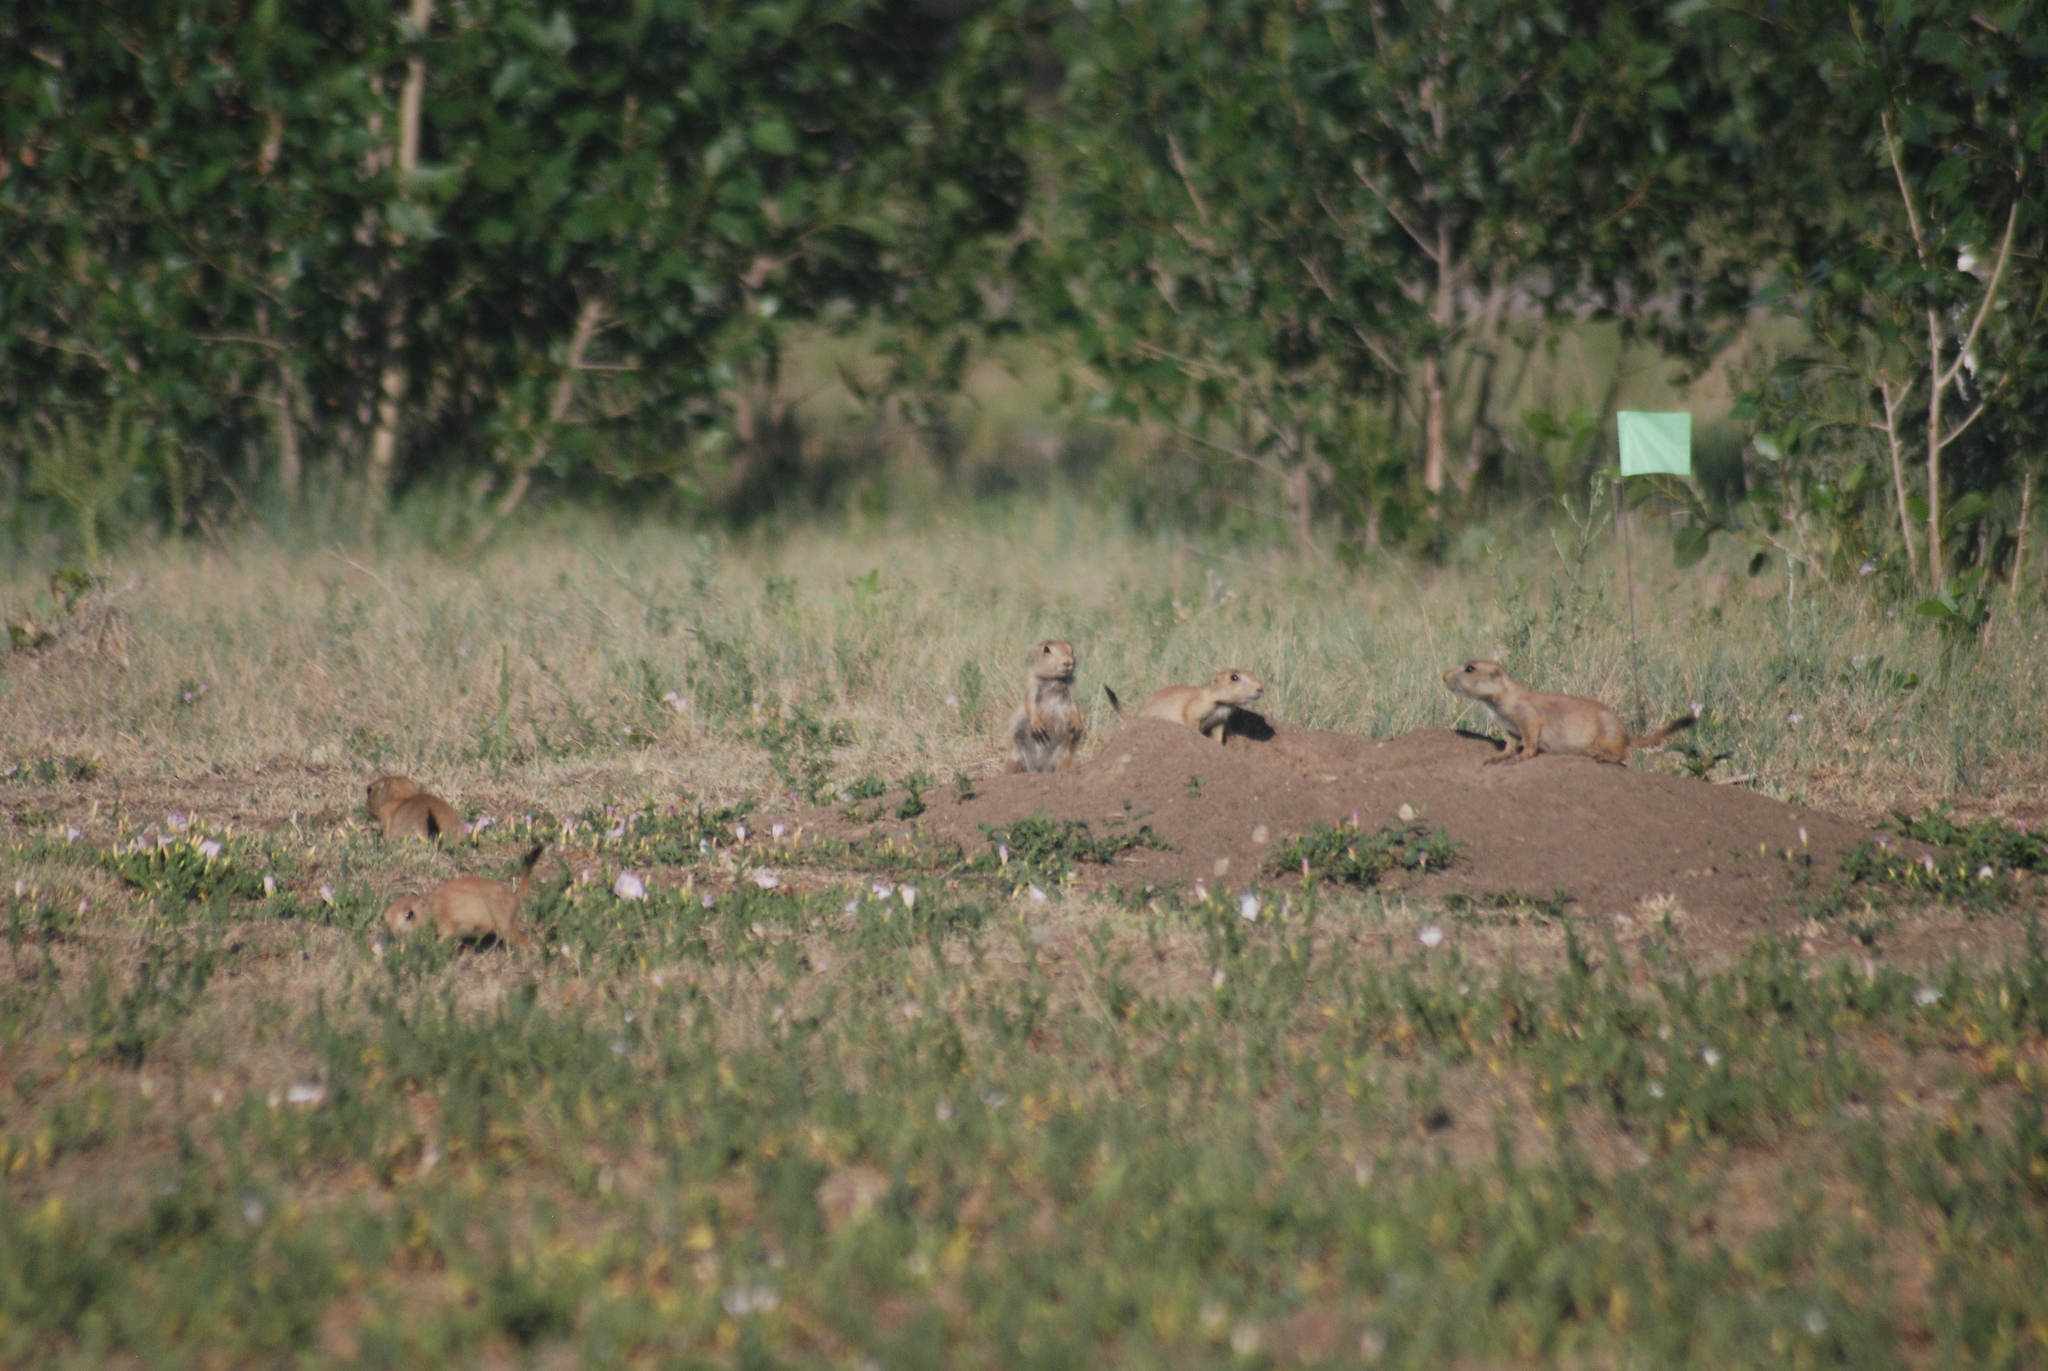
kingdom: Animalia
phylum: Chordata
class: Mammalia
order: Rodentia
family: Sciuridae
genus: Cynomys
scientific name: Cynomys ludovicianus
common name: Black-tailed prairie dog
